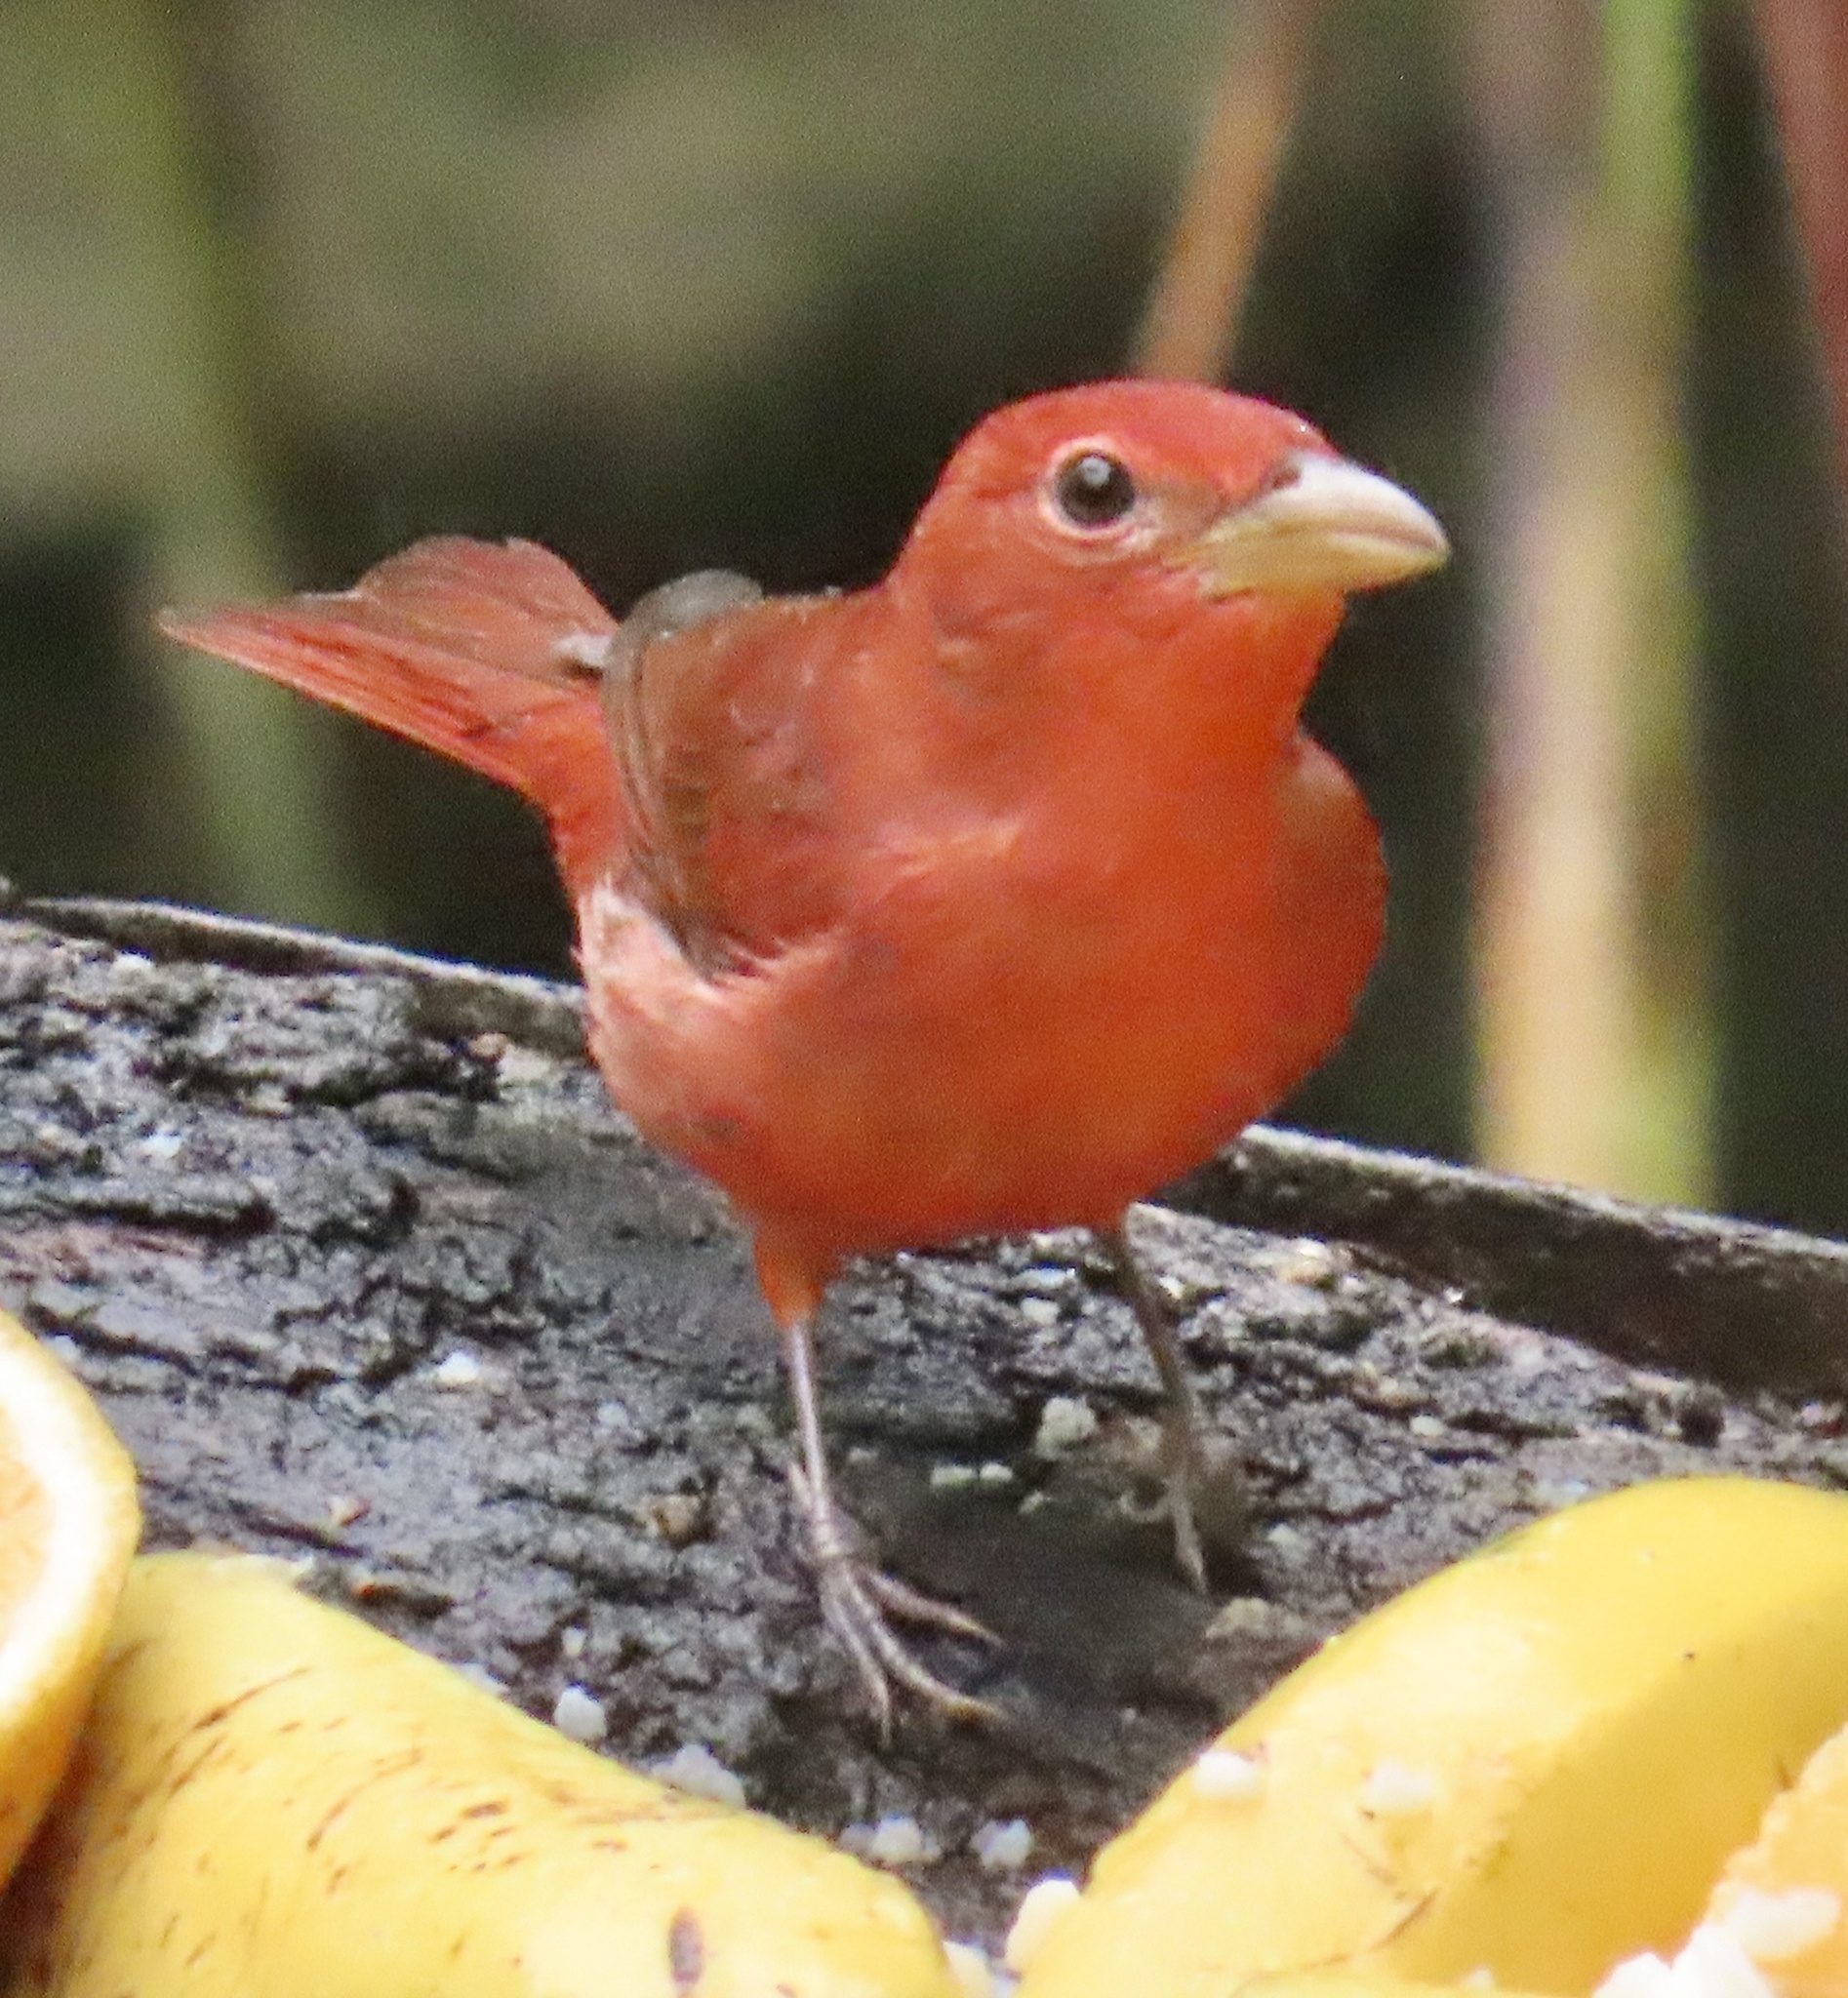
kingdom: Animalia
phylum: Chordata
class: Aves
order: Passeriformes
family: Cardinalidae
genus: Piranga
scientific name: Piranga rubra
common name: Summer tanager
